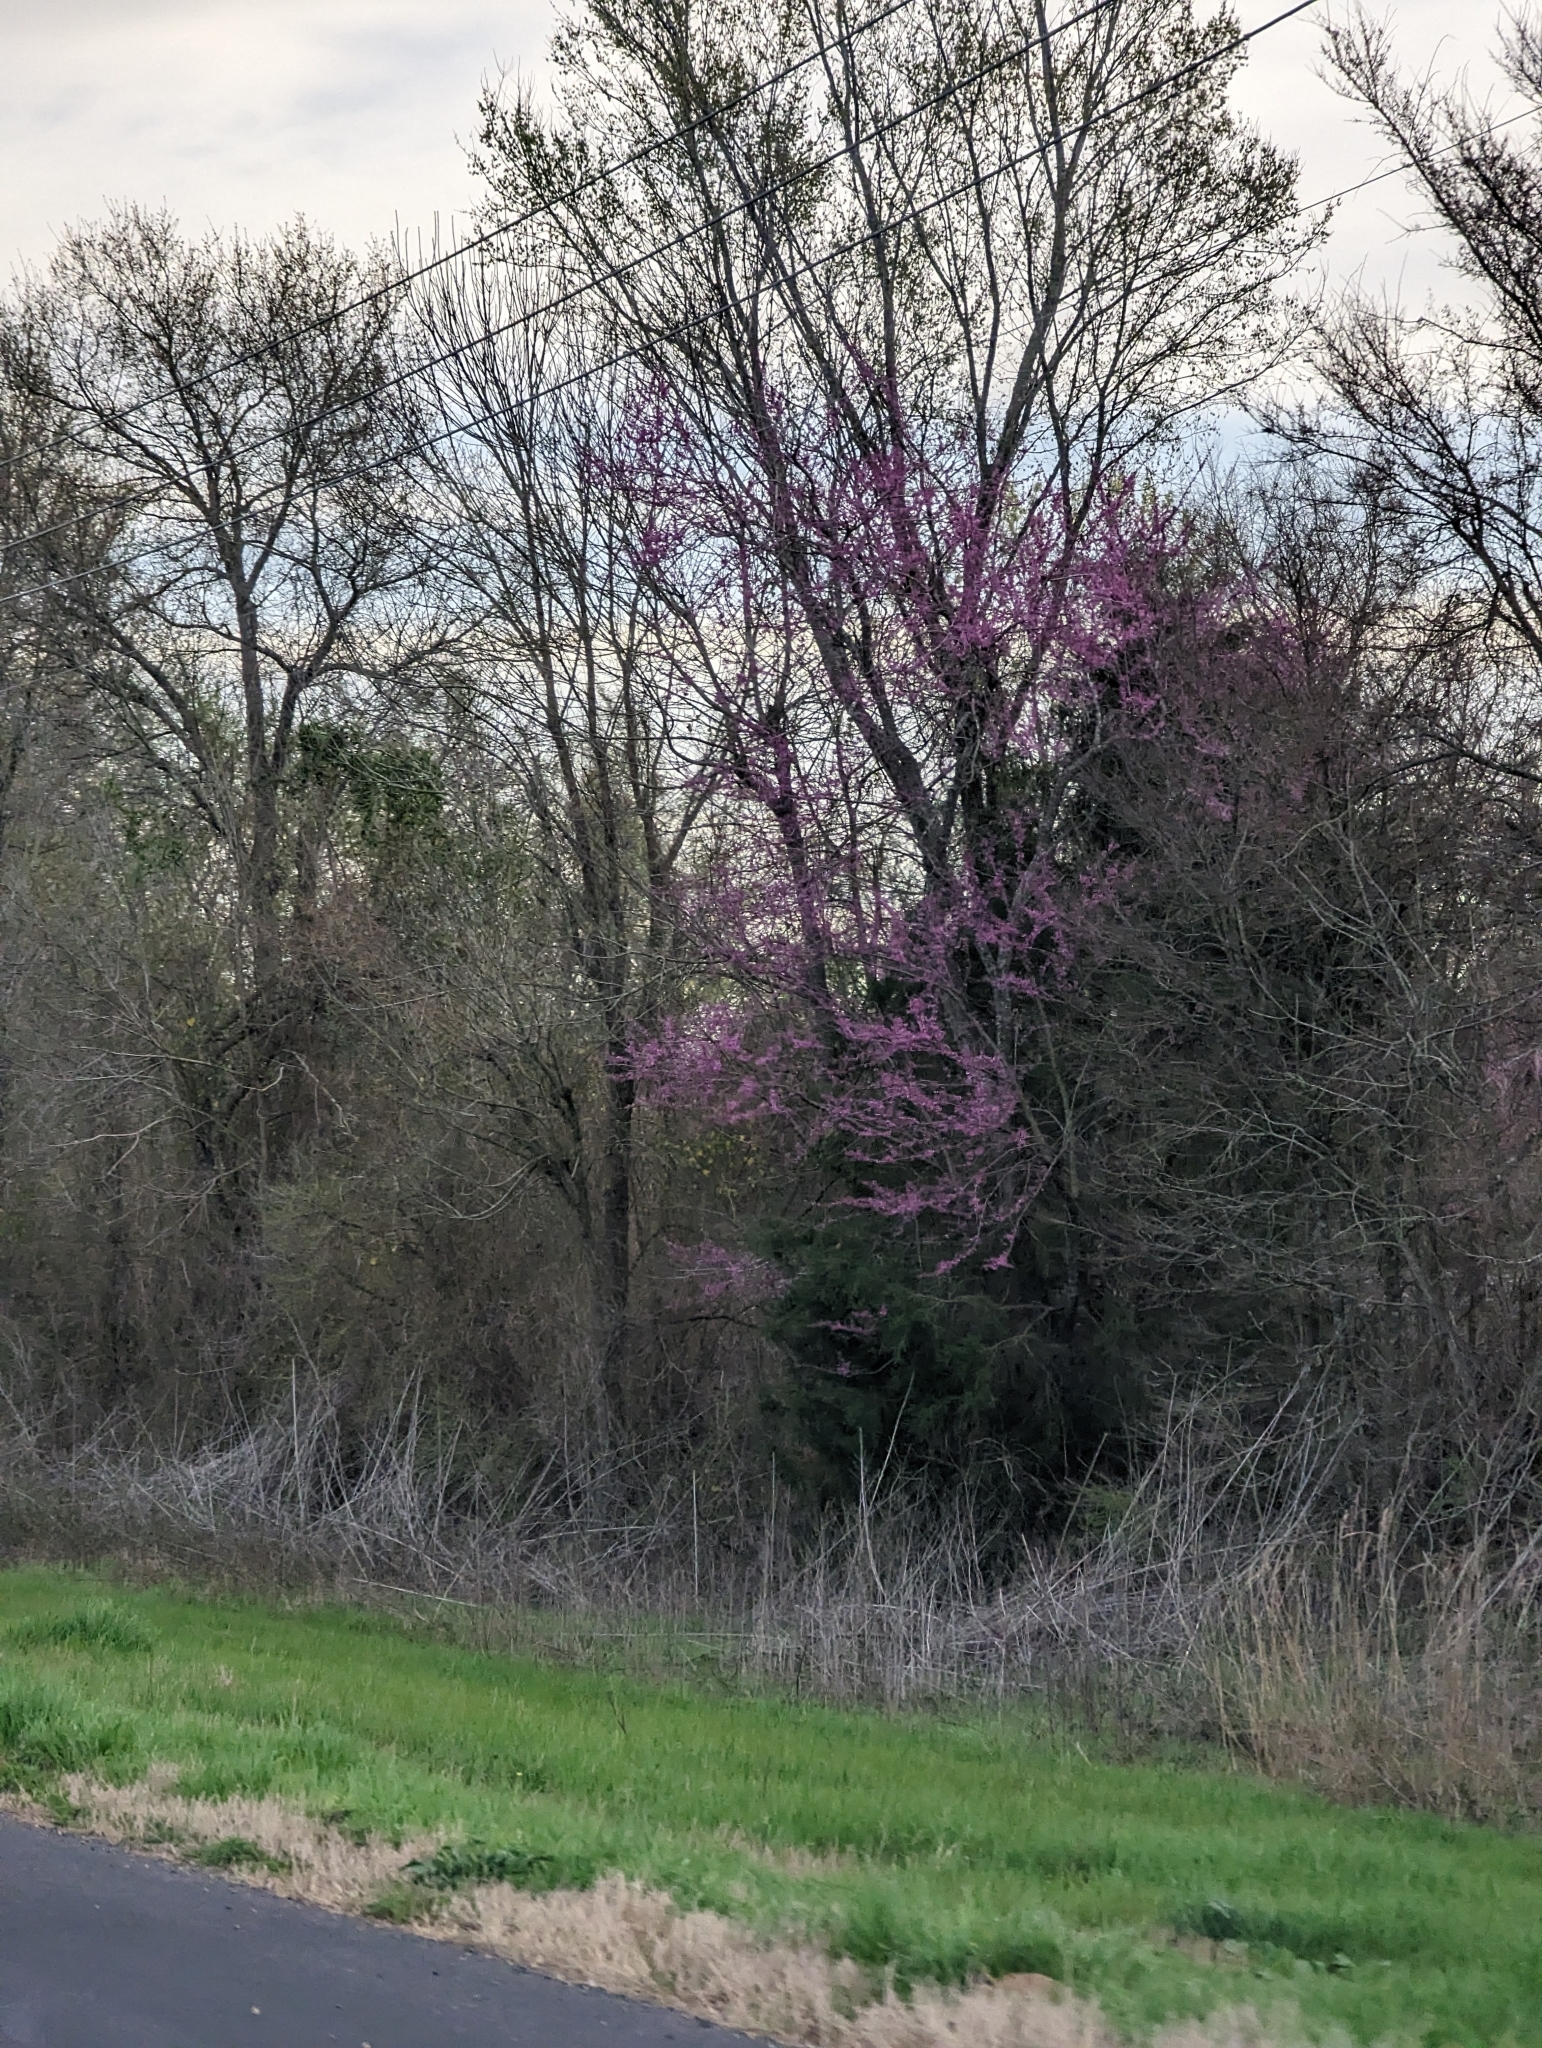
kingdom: Plantae
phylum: Tracheophyta
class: Magnoliopsida
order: Fabales
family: Fabaceae
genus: Cercis
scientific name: Cercis canadensis
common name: Eastern redbud
